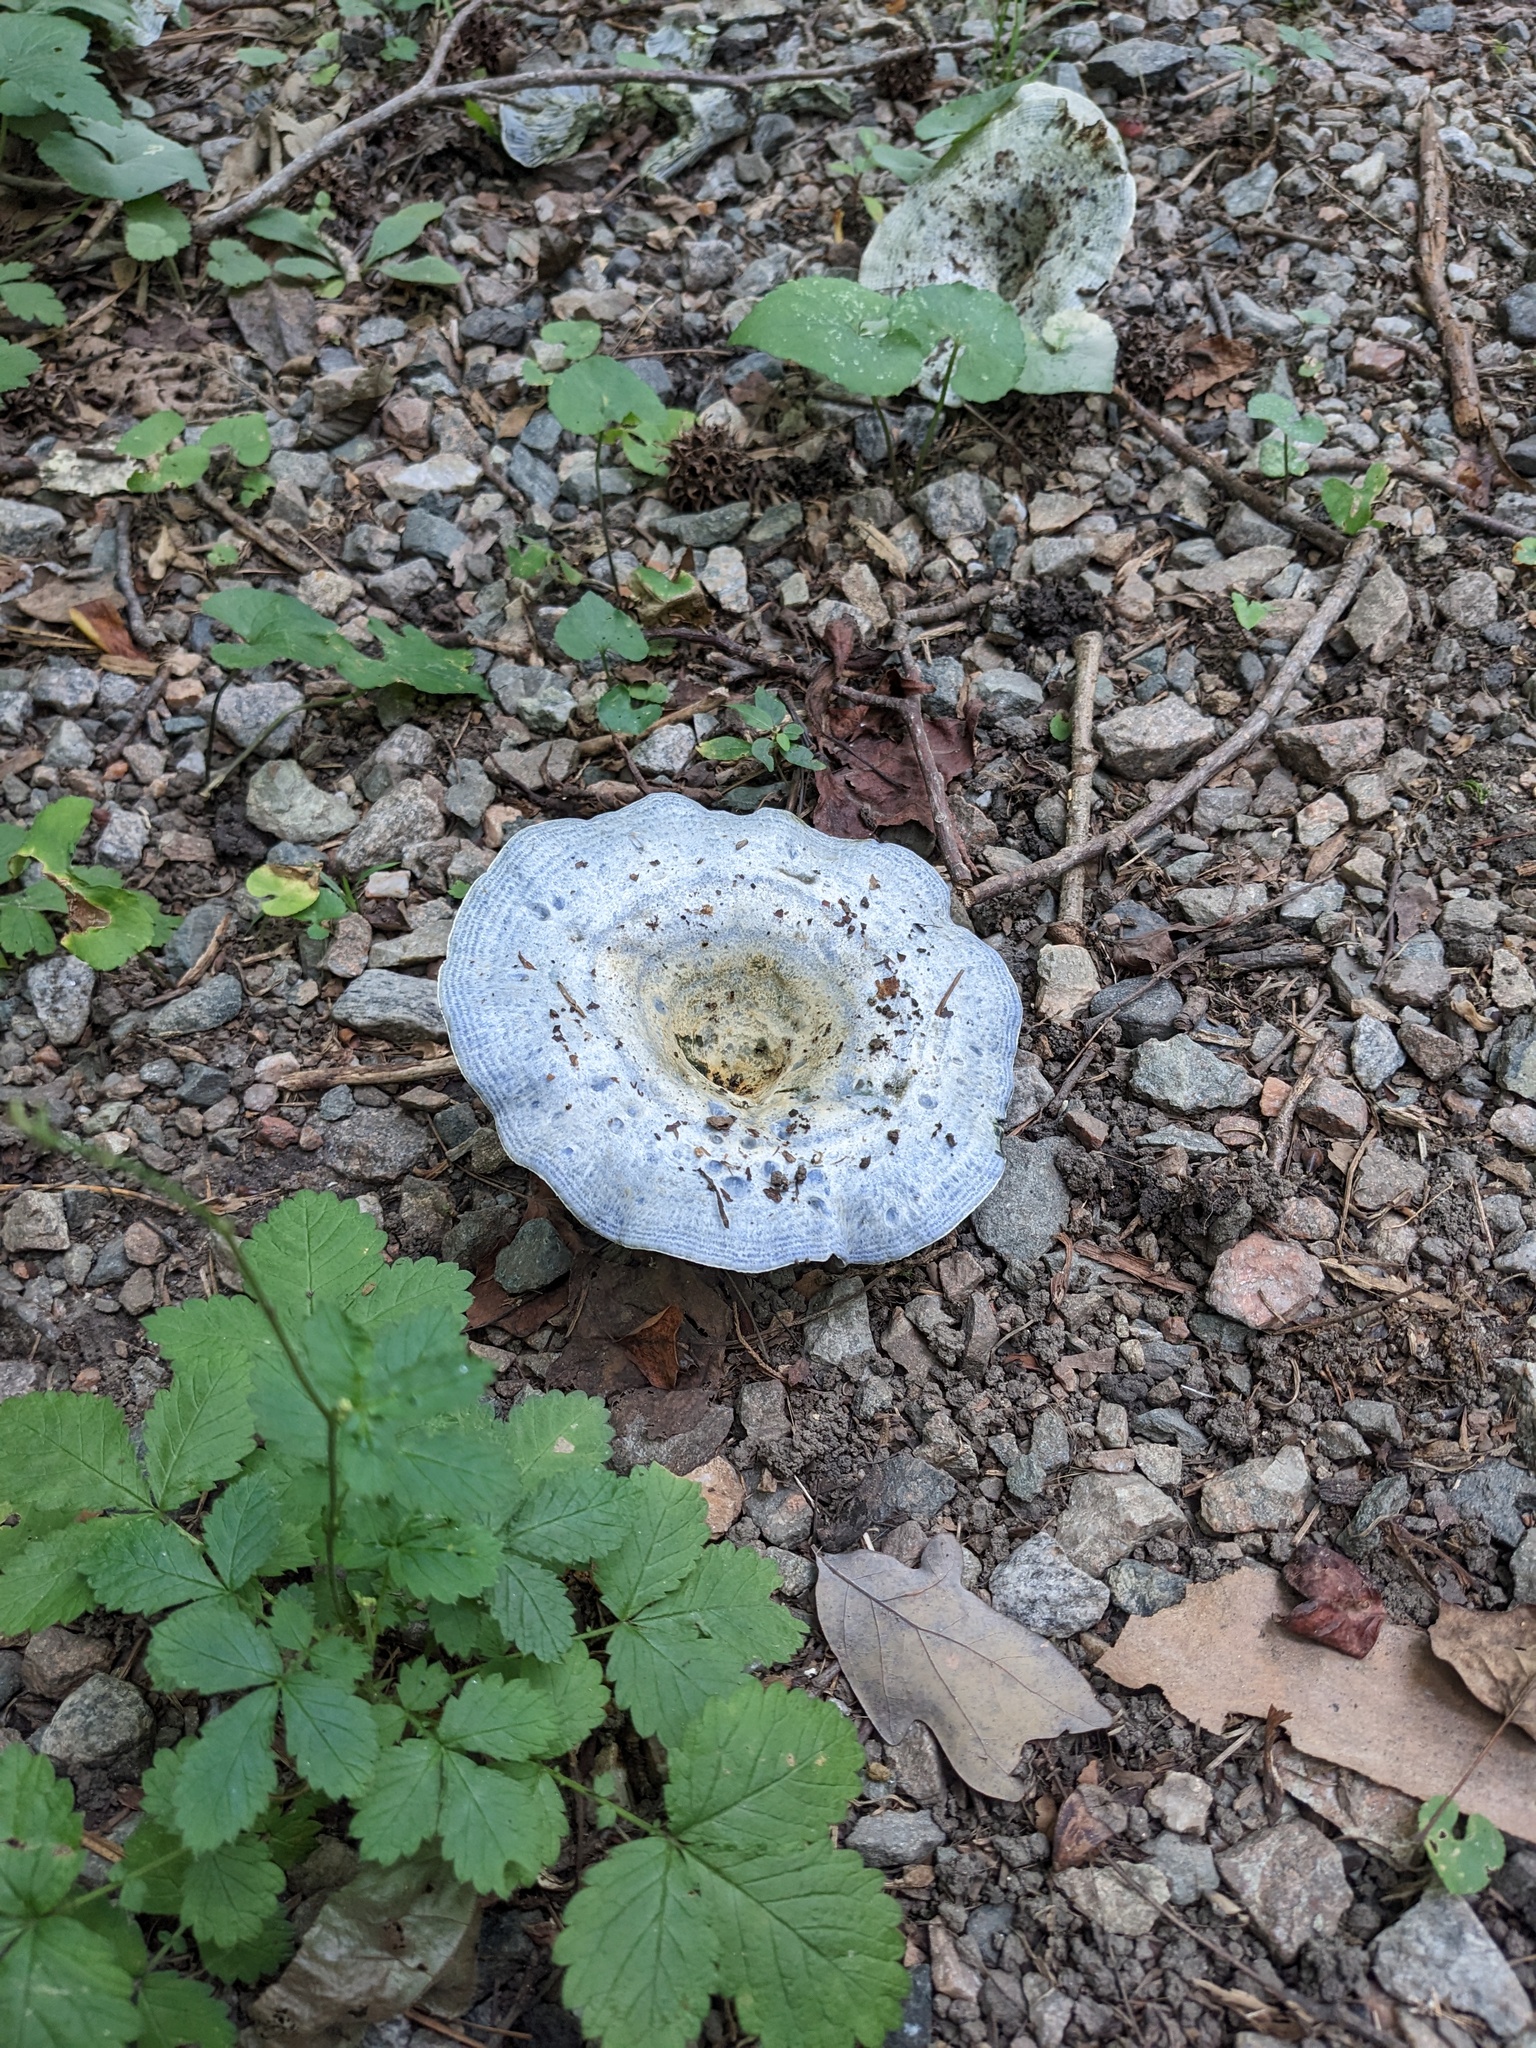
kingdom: Fungi
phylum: Basidiomycota
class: Agaricomycetes
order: Russulales
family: Russulaceae
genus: Lactarius
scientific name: Lactarius indigo
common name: Indigo milk cap
